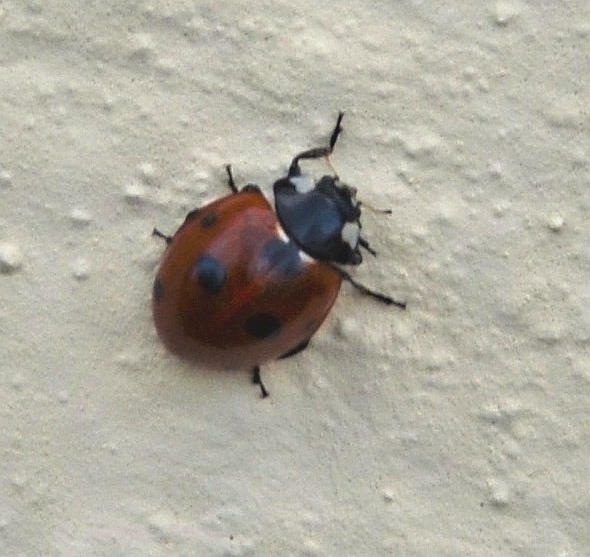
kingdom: Animalia
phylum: Arthropoda
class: Insecta
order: Coleoptera
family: Coccinellidae
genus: Coccinella
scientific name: Coccinella septempunctata
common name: Sevenspotted lady beetle
